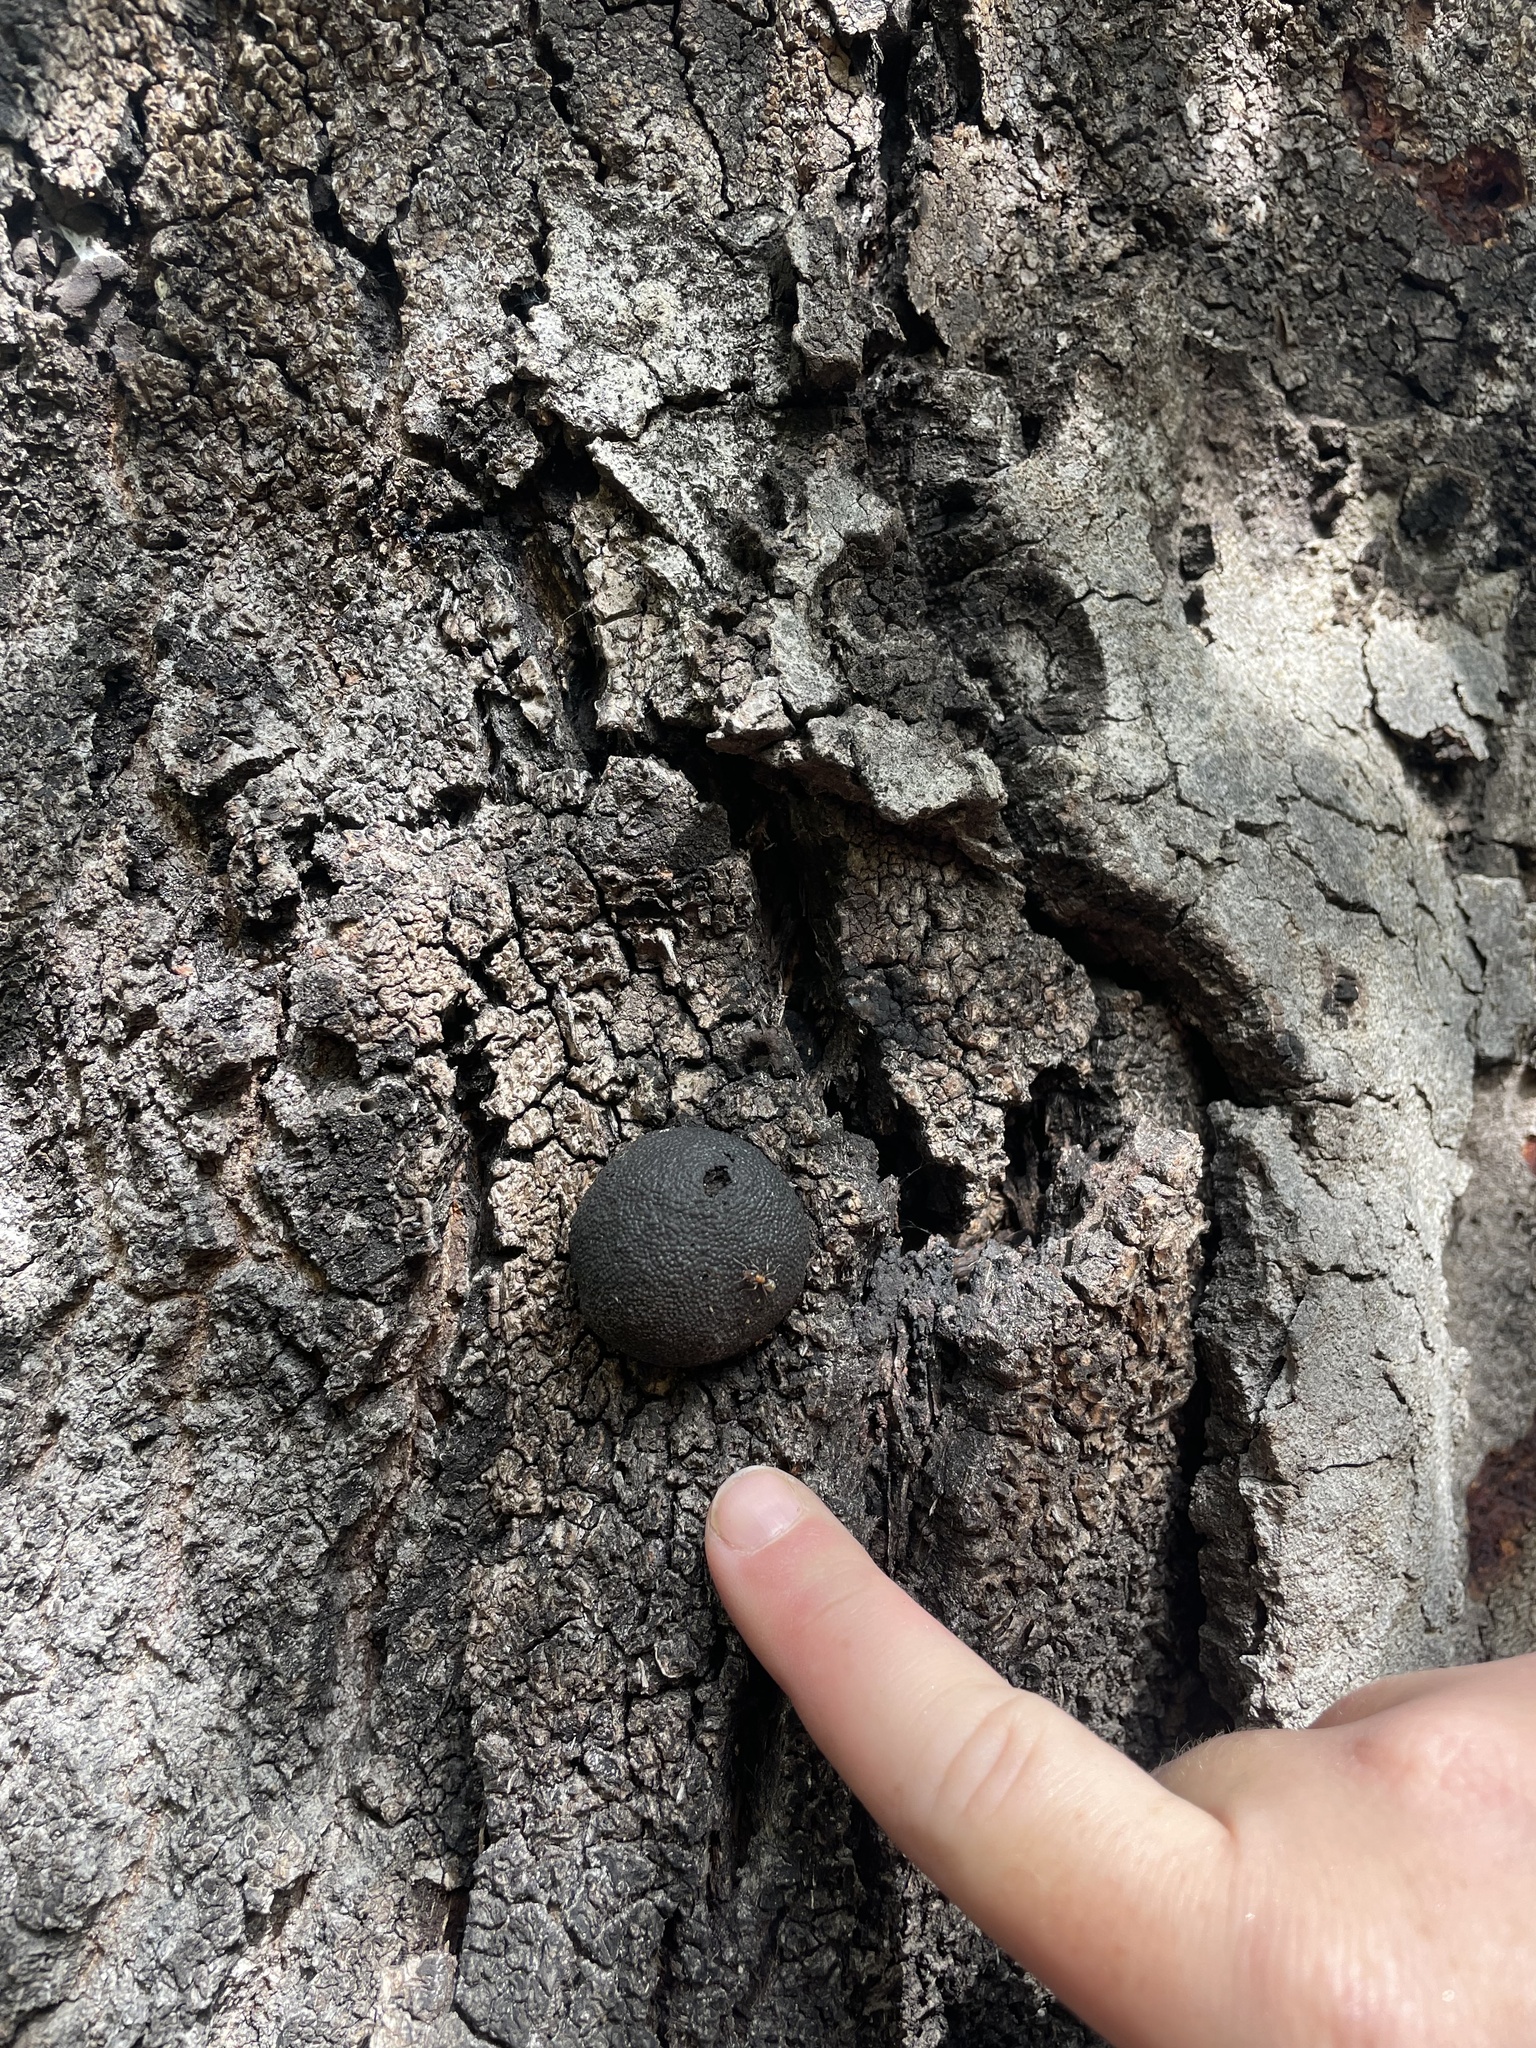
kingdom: Fungi
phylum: Ascomycota
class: Sordariomycetes
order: Xylariales
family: Hypoxylaceae
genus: Annulohypoxylon
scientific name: Annulohypoxylon thouarsianum
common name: Cramp balls
